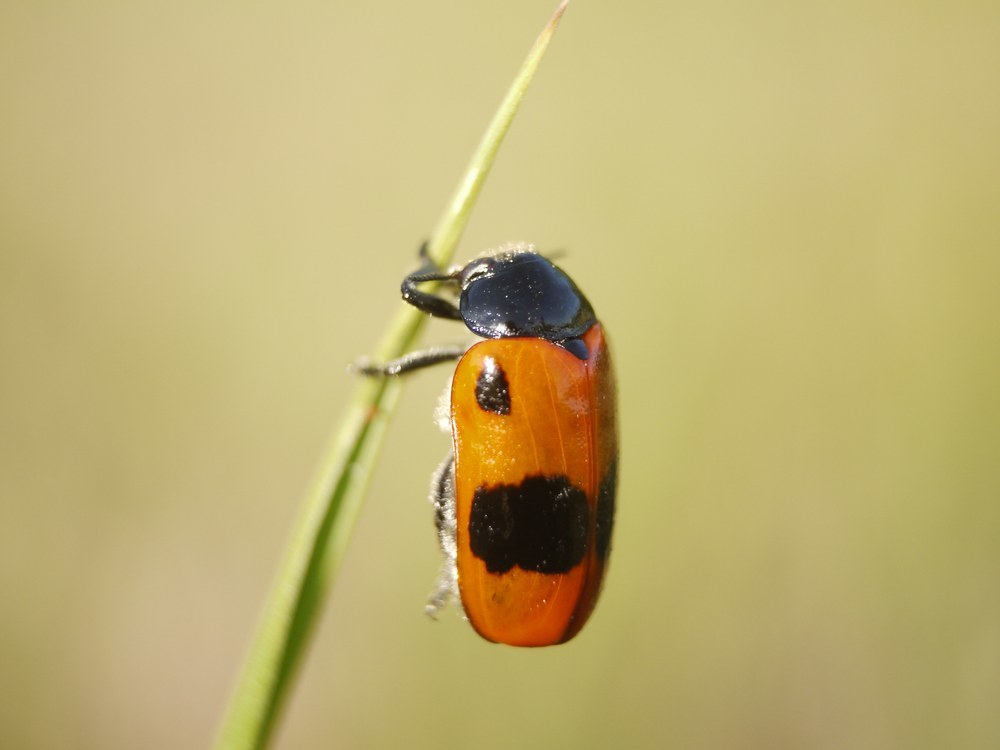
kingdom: Animalia
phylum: Arthropoda
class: Insecta
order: Coleoptera
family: Chrysomelidae
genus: Clytra
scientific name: Clytra laeviuscula
